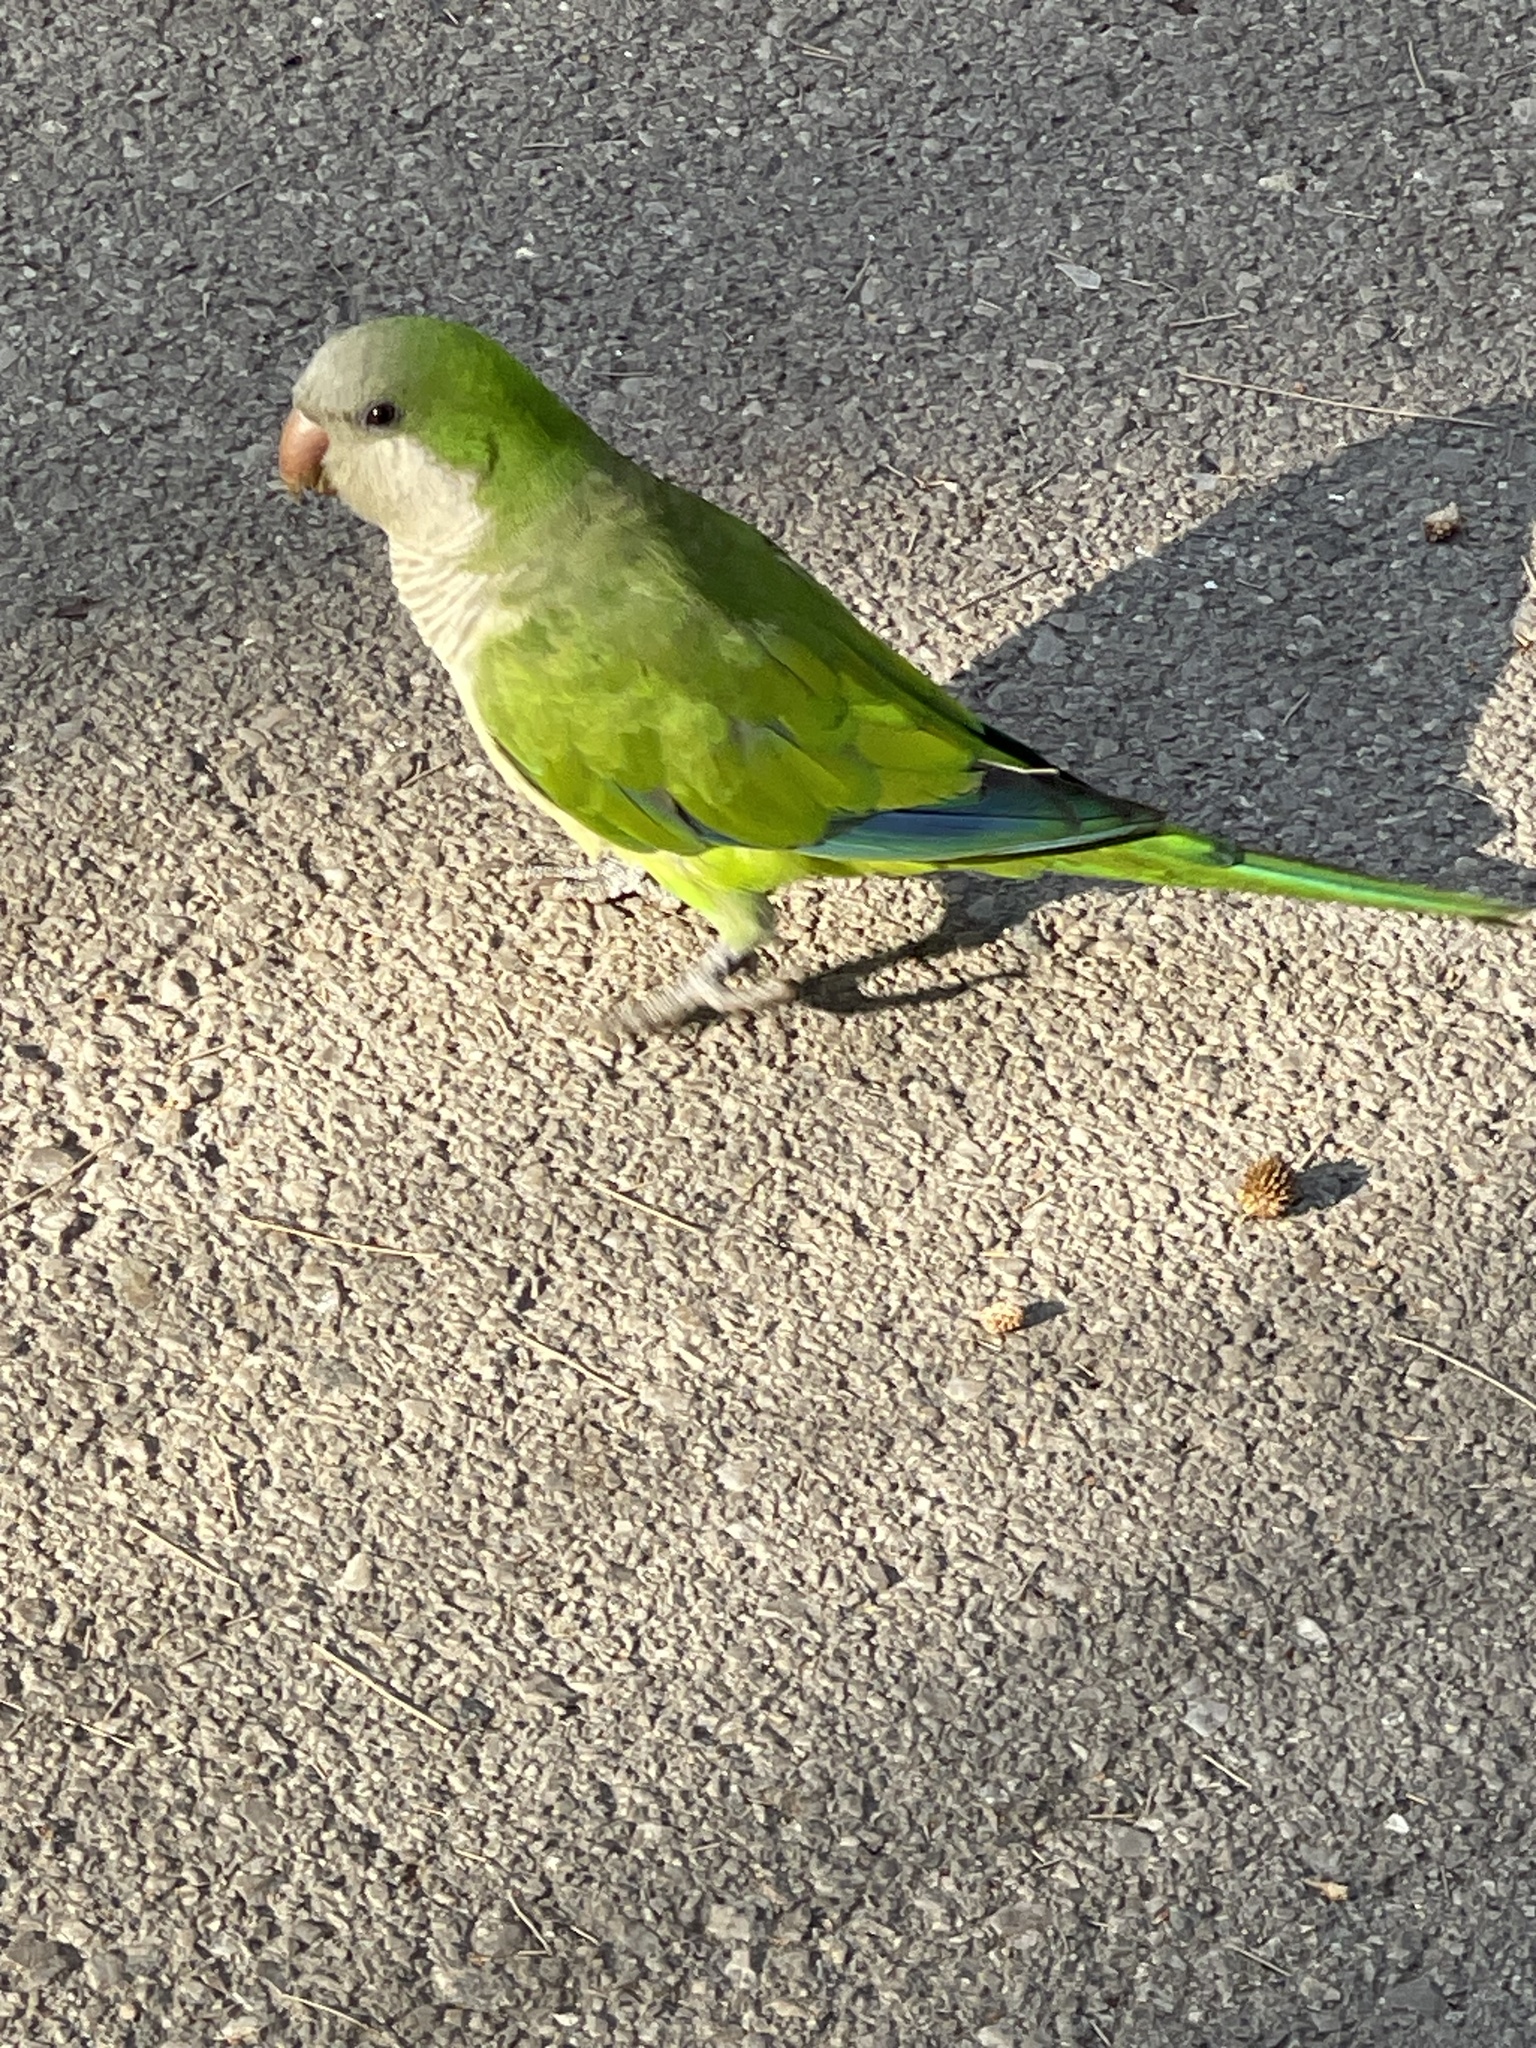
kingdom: Animalia
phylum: Chordata
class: Aves
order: Psittaciformes
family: Psittacidae
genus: Myiopsitta
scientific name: Myiopsitta monachus
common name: Monk parakeet
